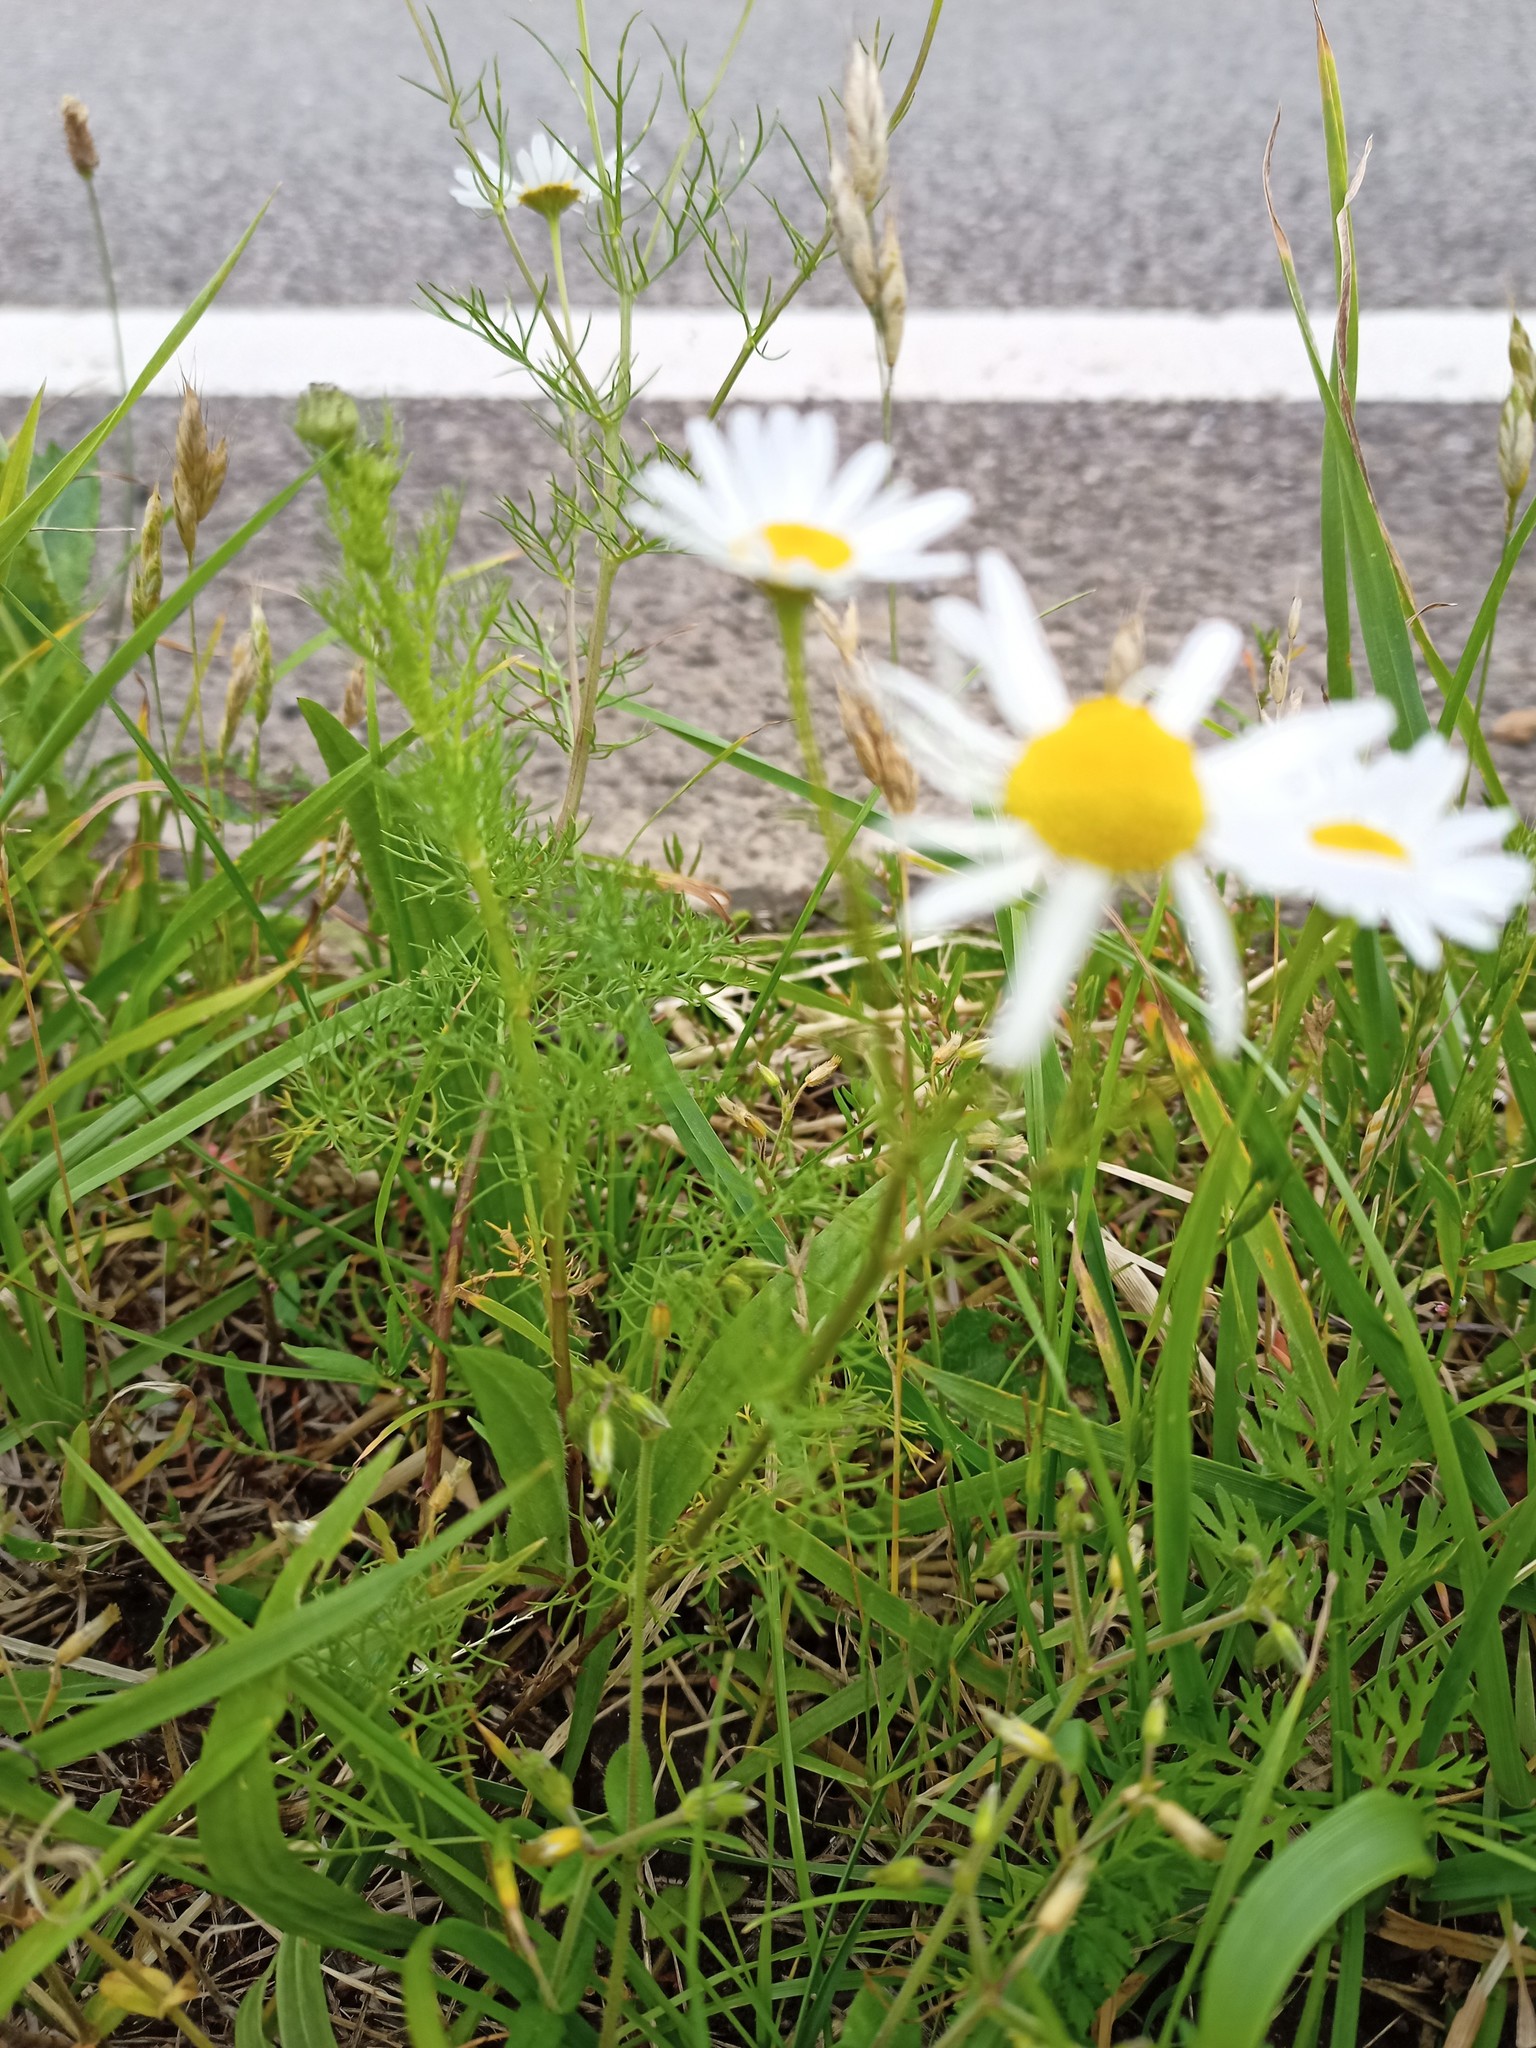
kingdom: Plantae
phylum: Tracheophyta
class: Magnoliopsida
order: Asterales
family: Asteraceae
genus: Tripleurospermum
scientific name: Tripleurospermum inodorum
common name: Scentless mayweed
